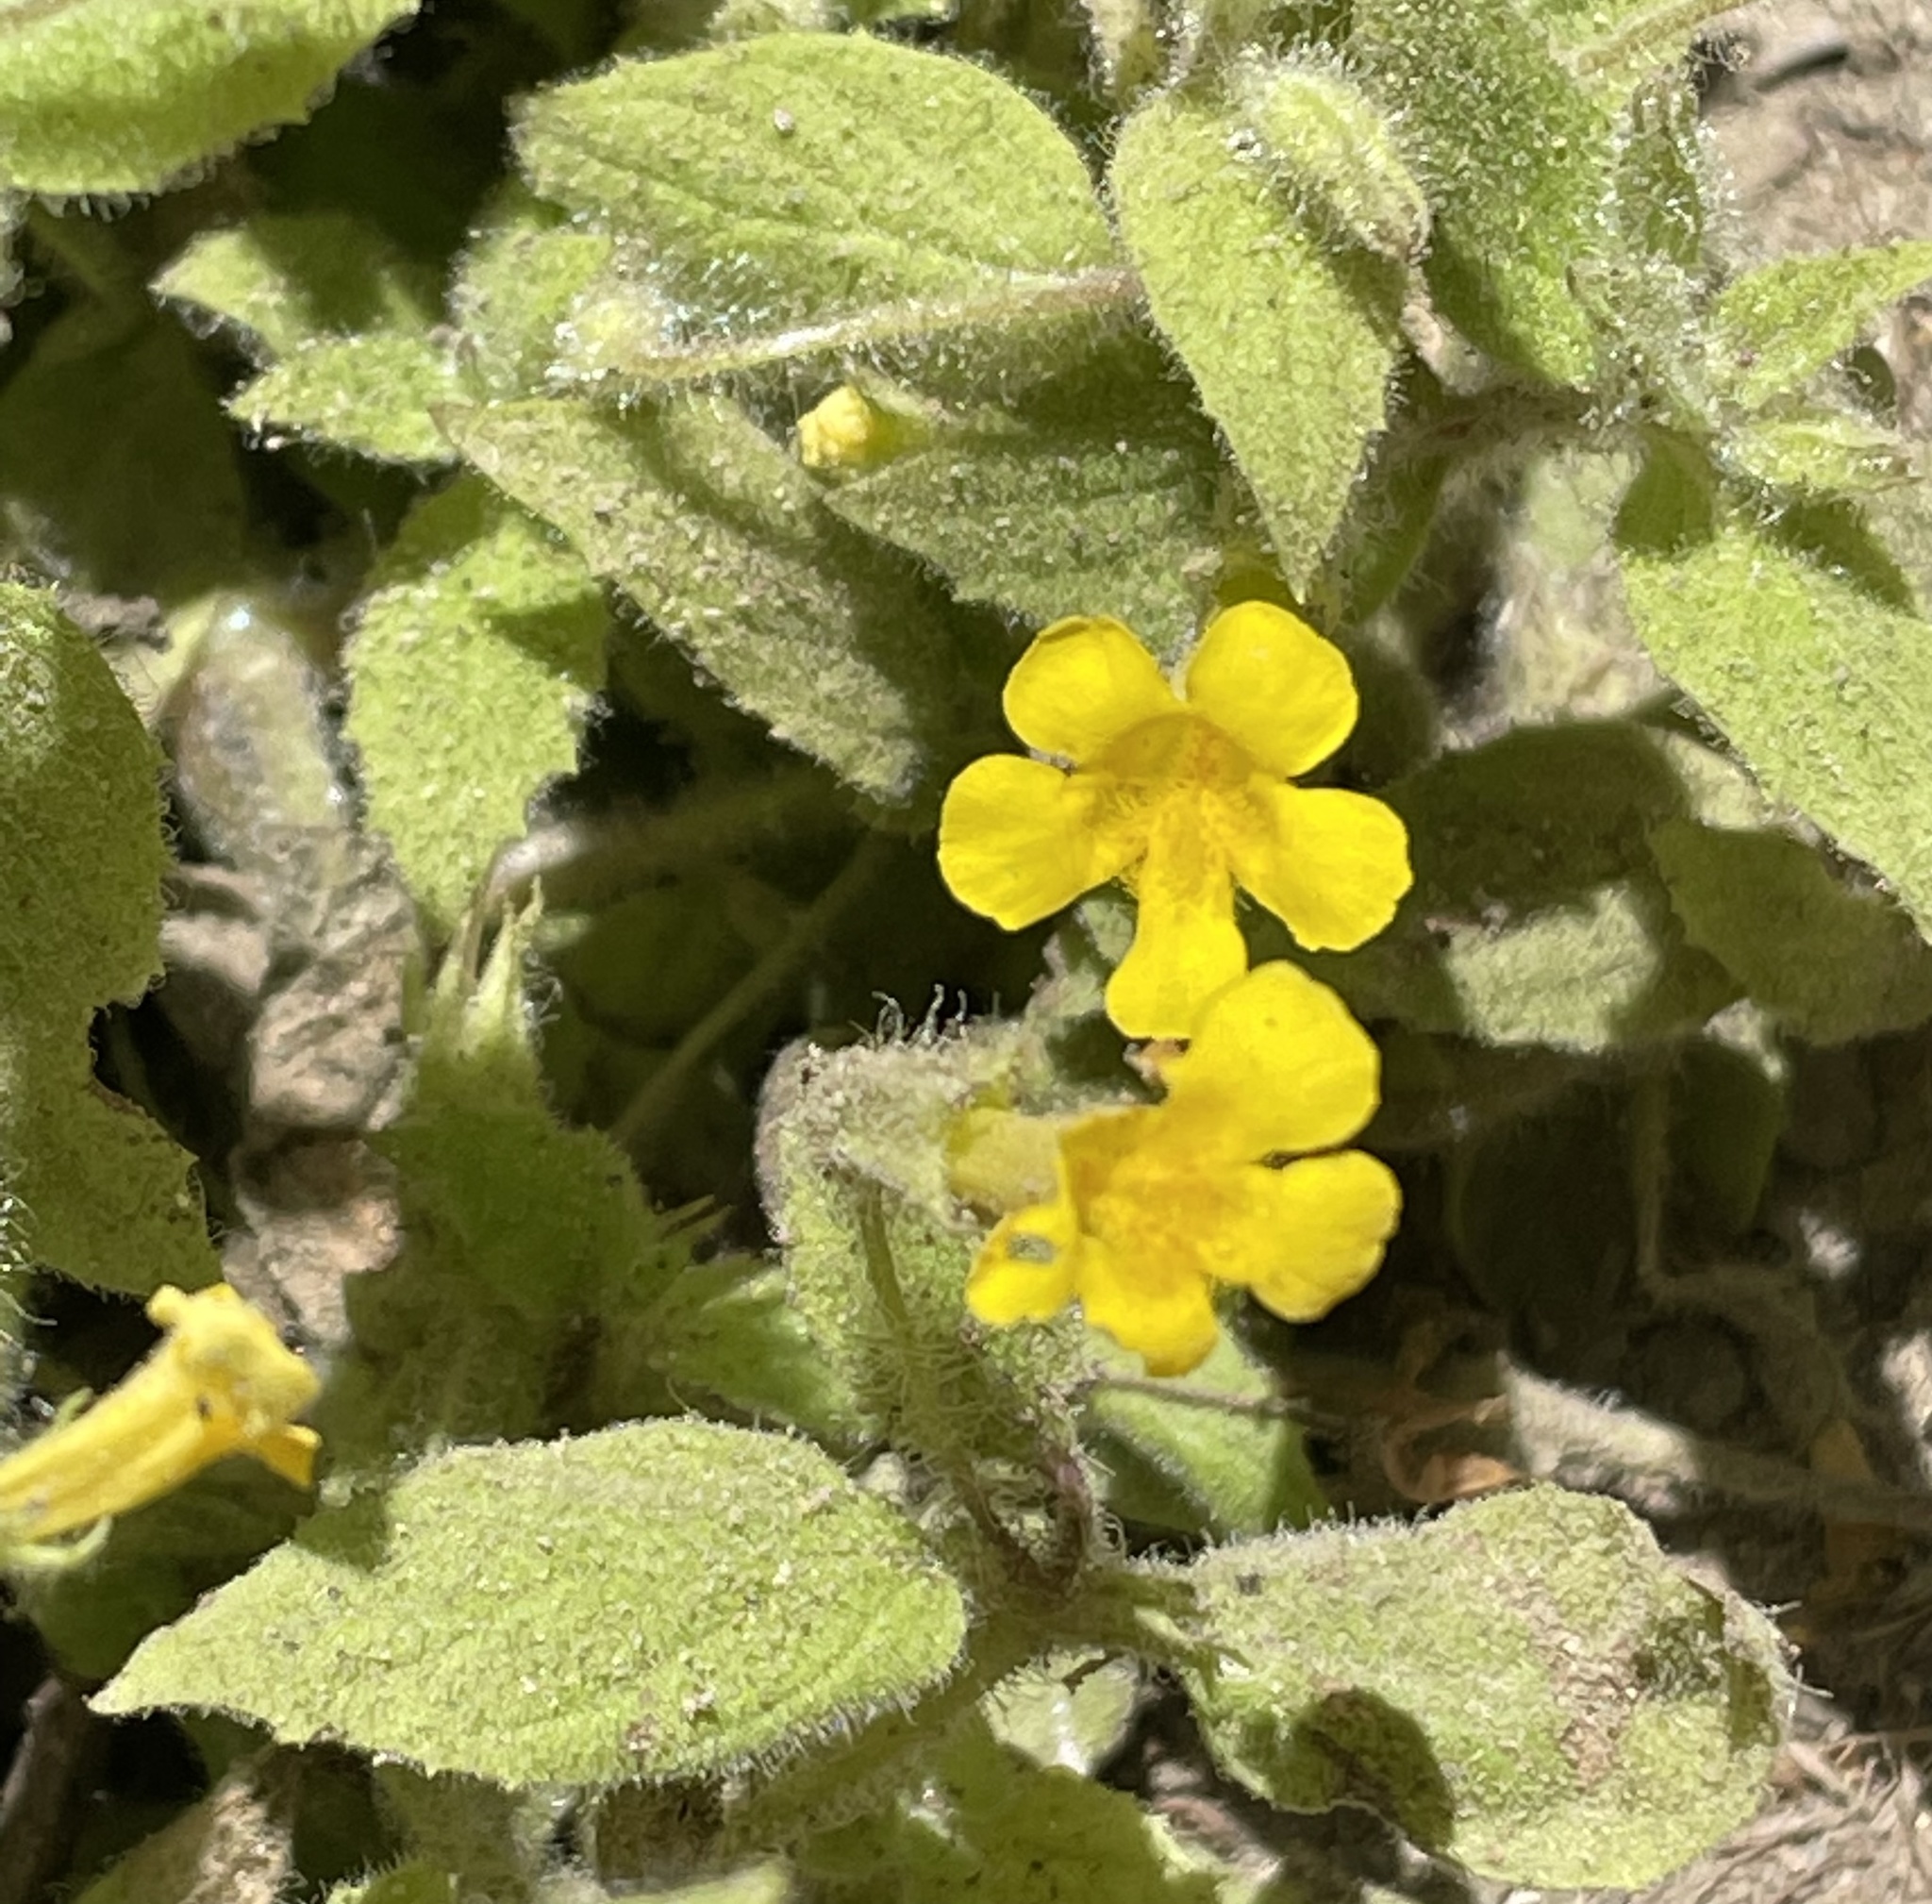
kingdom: Plantae
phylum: Tracheophyta
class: Magnoliopsida
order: Lamiales
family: Phrymaceae
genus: Erythranthe
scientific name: Erythranthe ptilota
